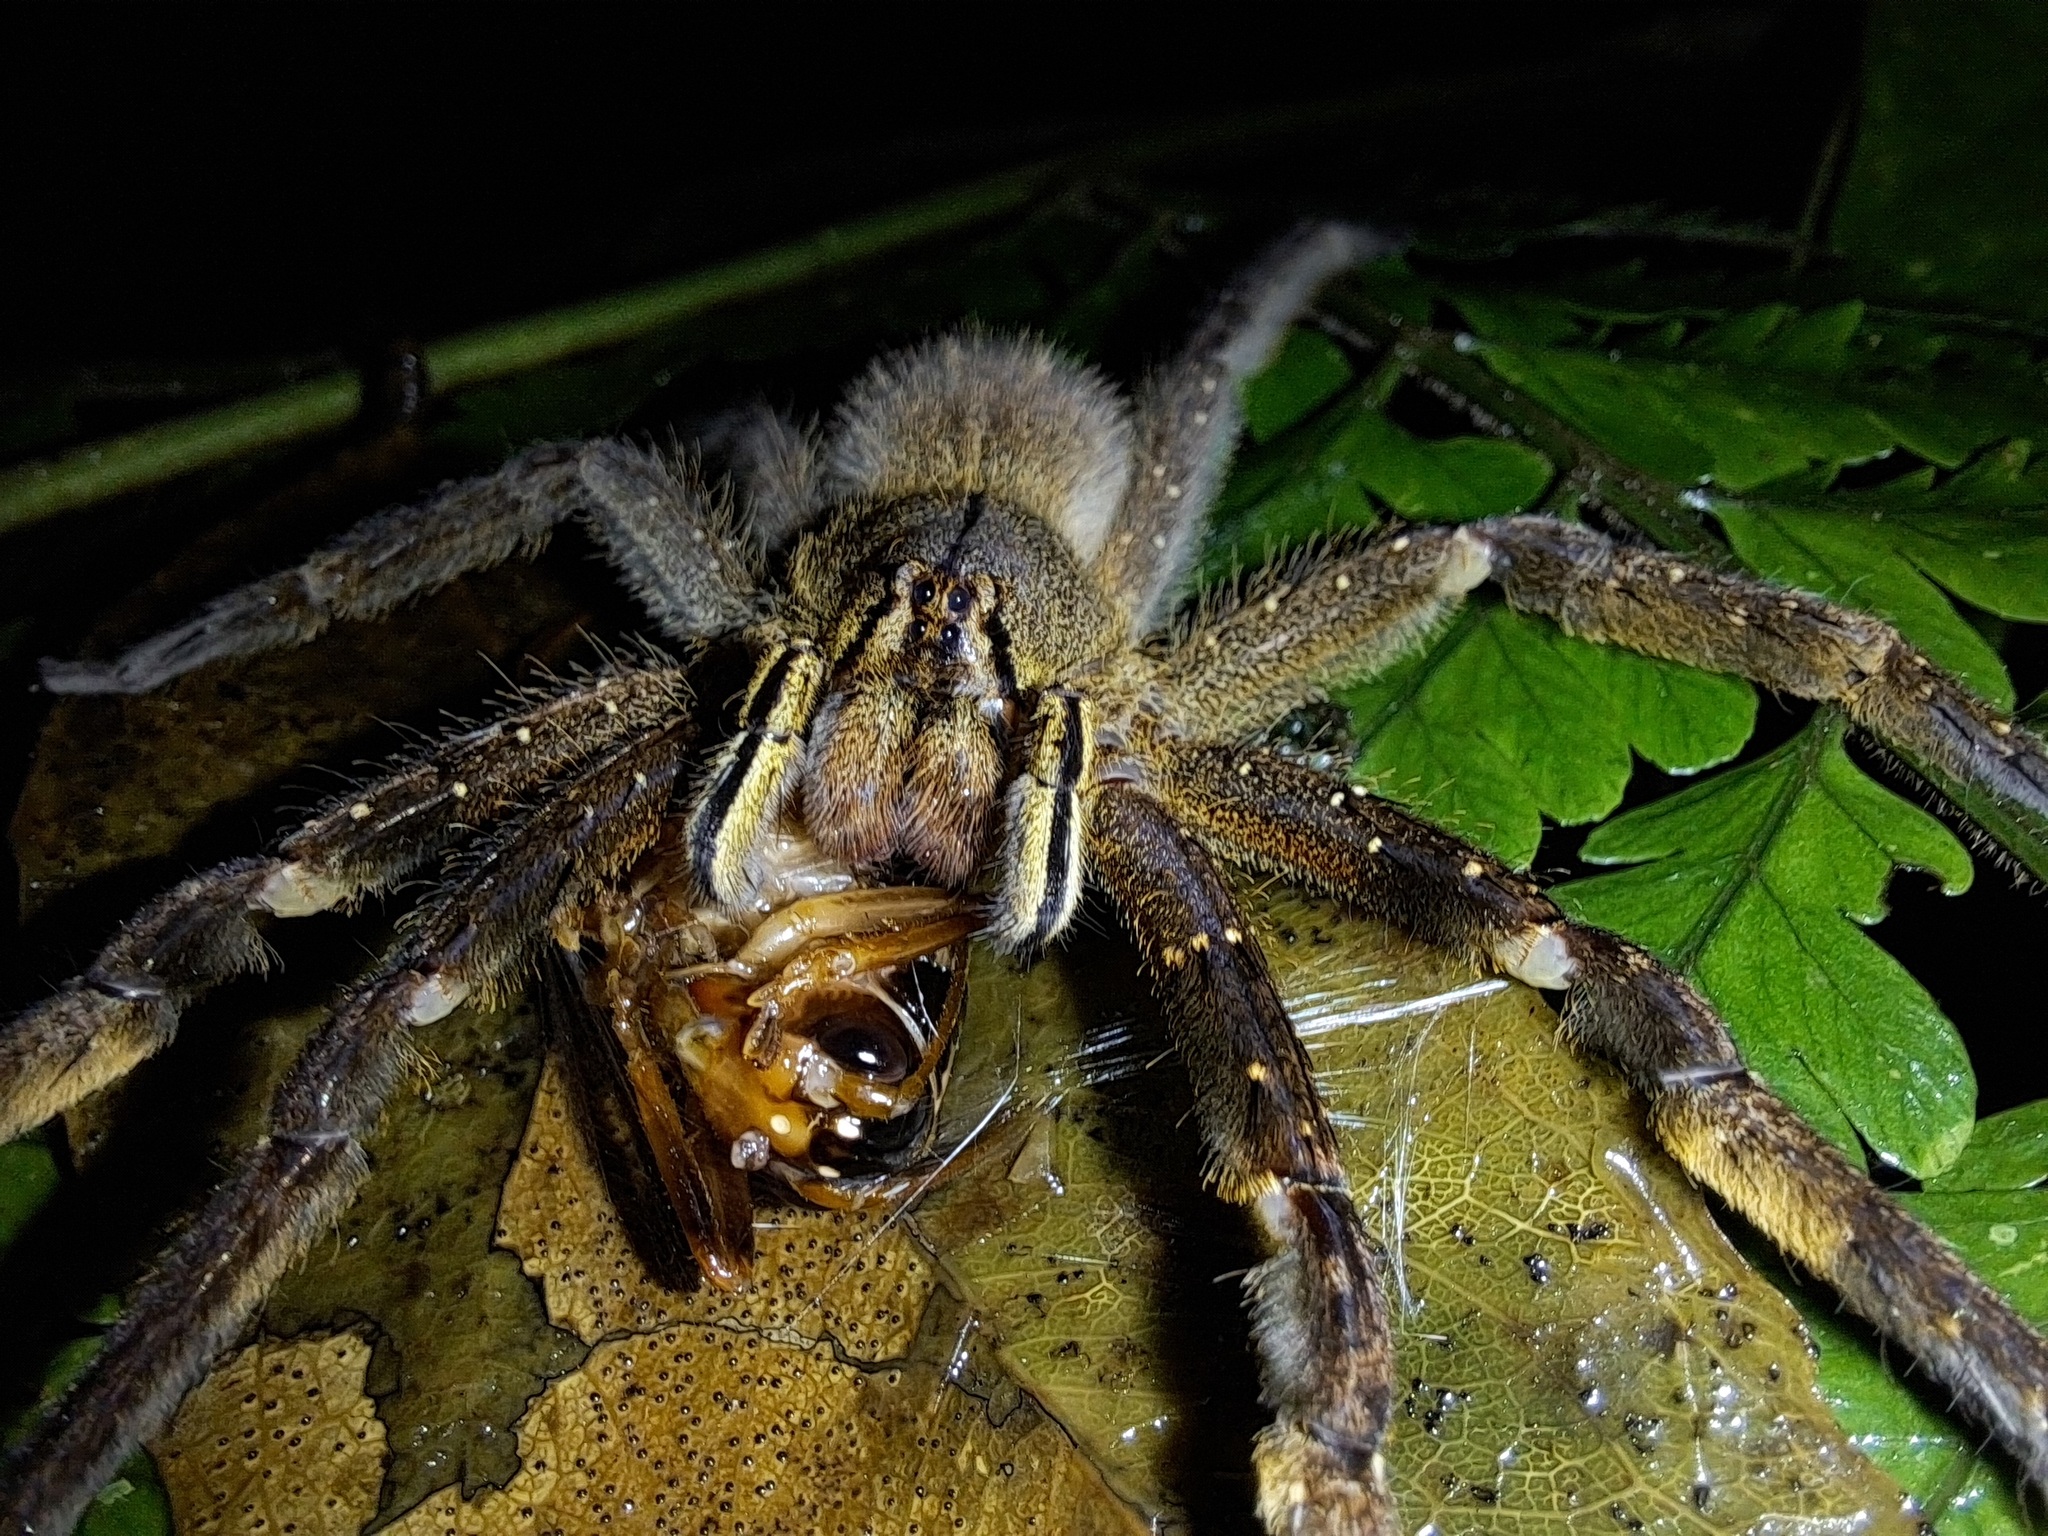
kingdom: Animalia
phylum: Arthropoda
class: Arachnida
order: Araneae
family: Ctenidae
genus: Phoneutria
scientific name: Phoneutria fera
